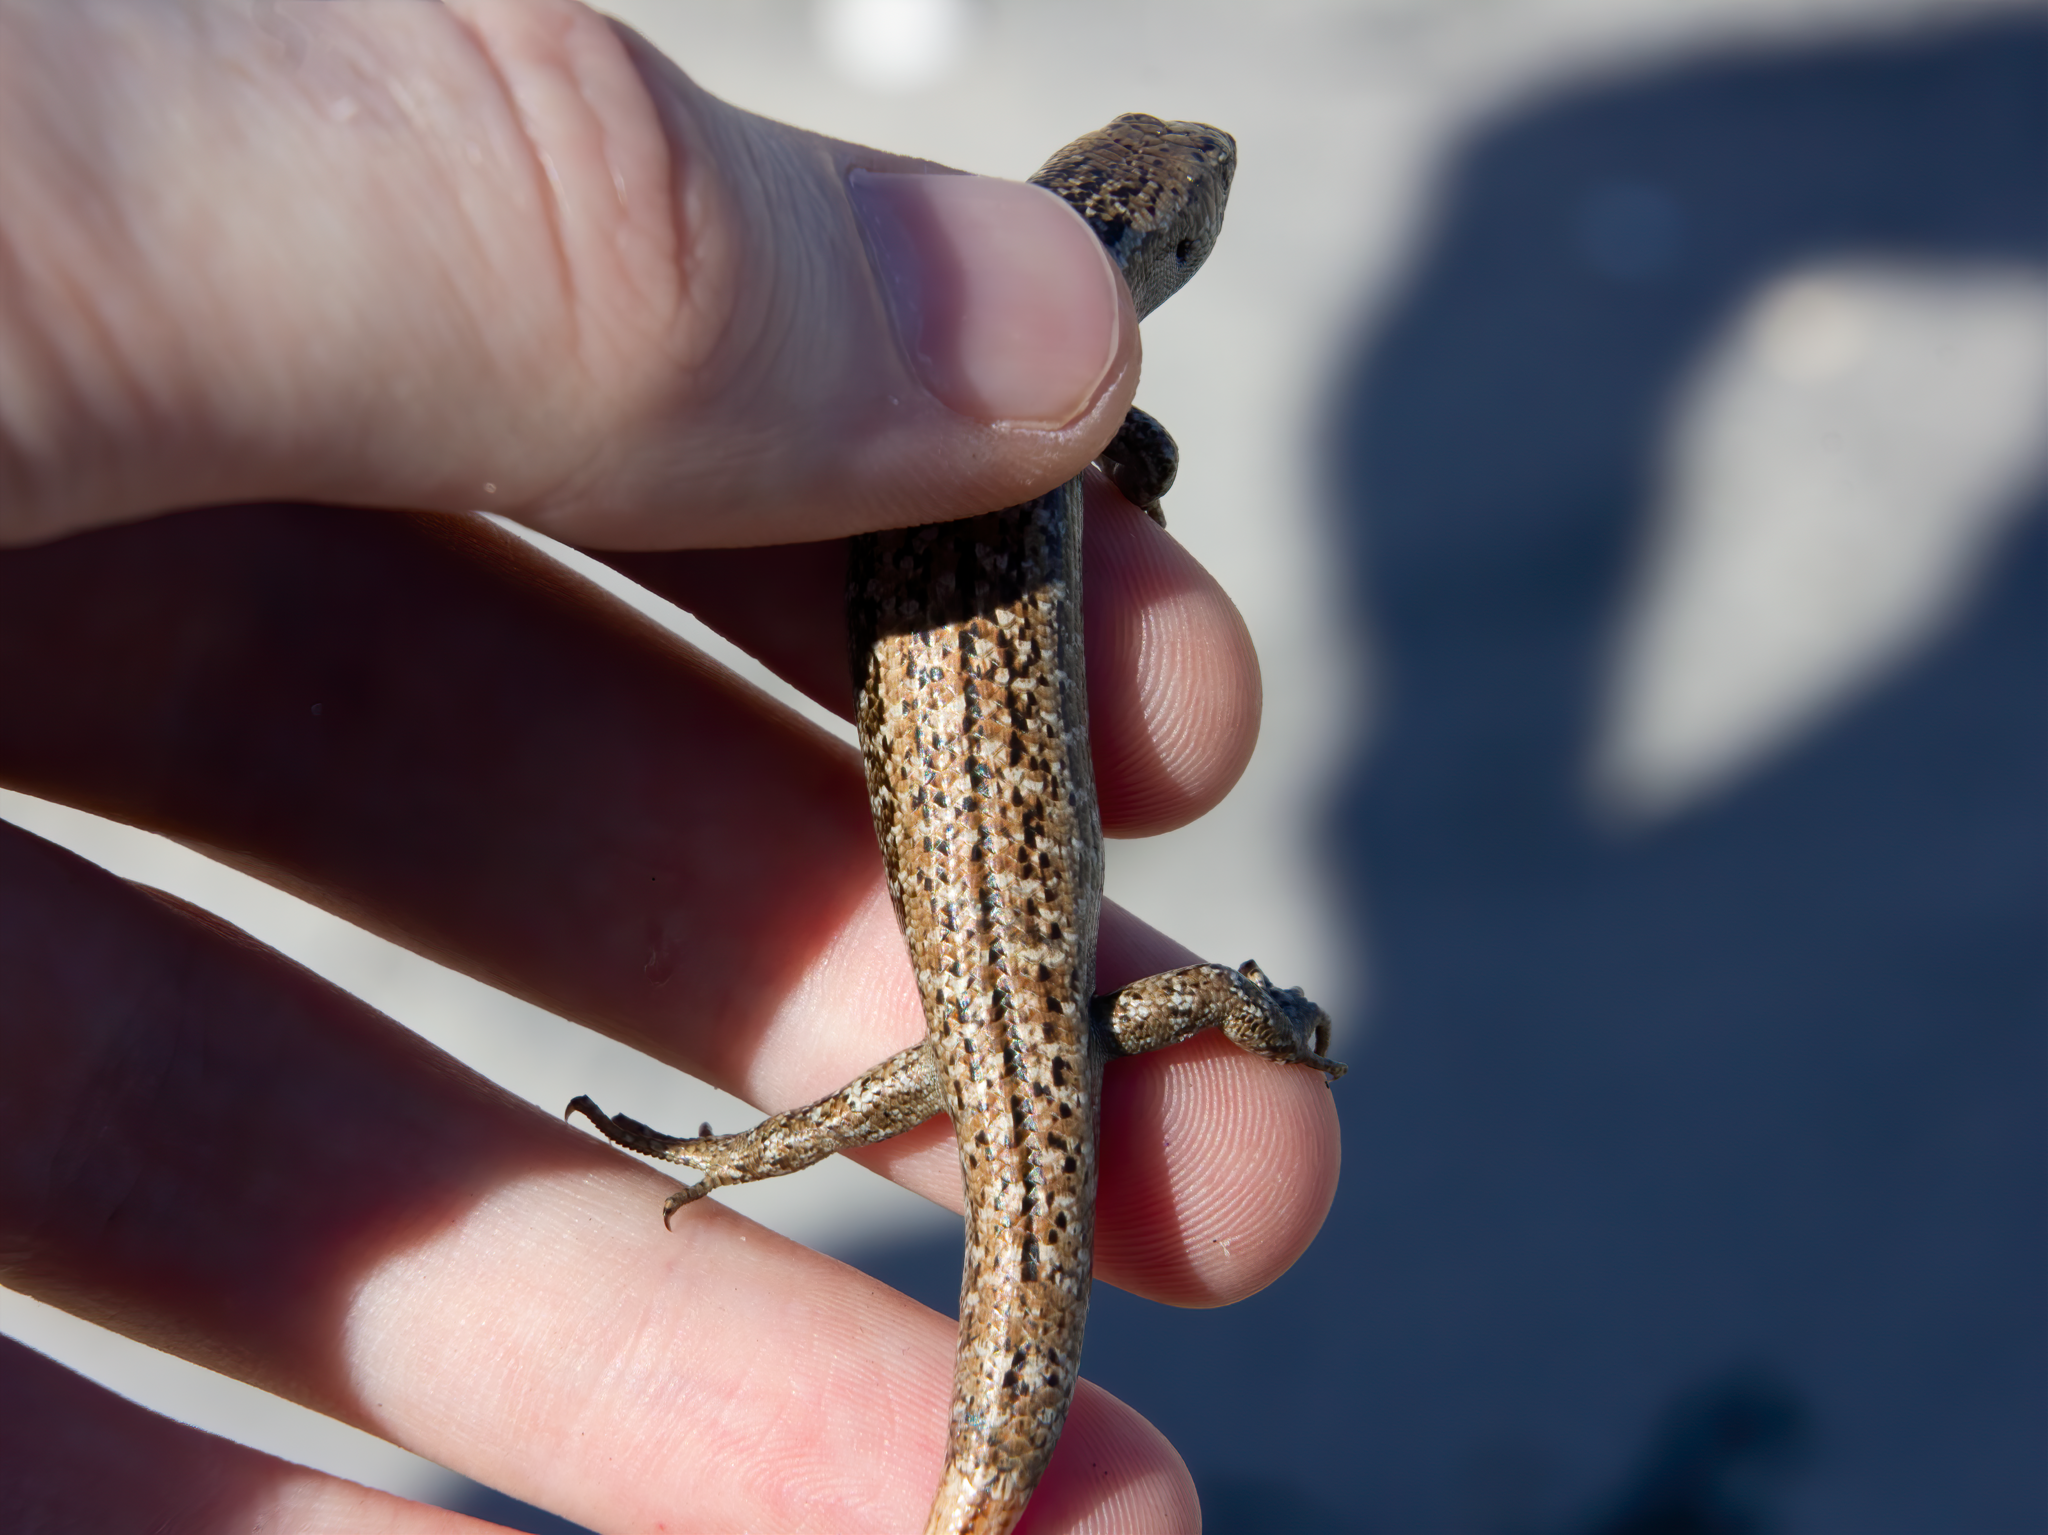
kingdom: Animalia
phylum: Chordata
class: Squamata
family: Scincidae
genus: Oligosoma
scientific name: Oligosoma smithi
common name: Shore skink
